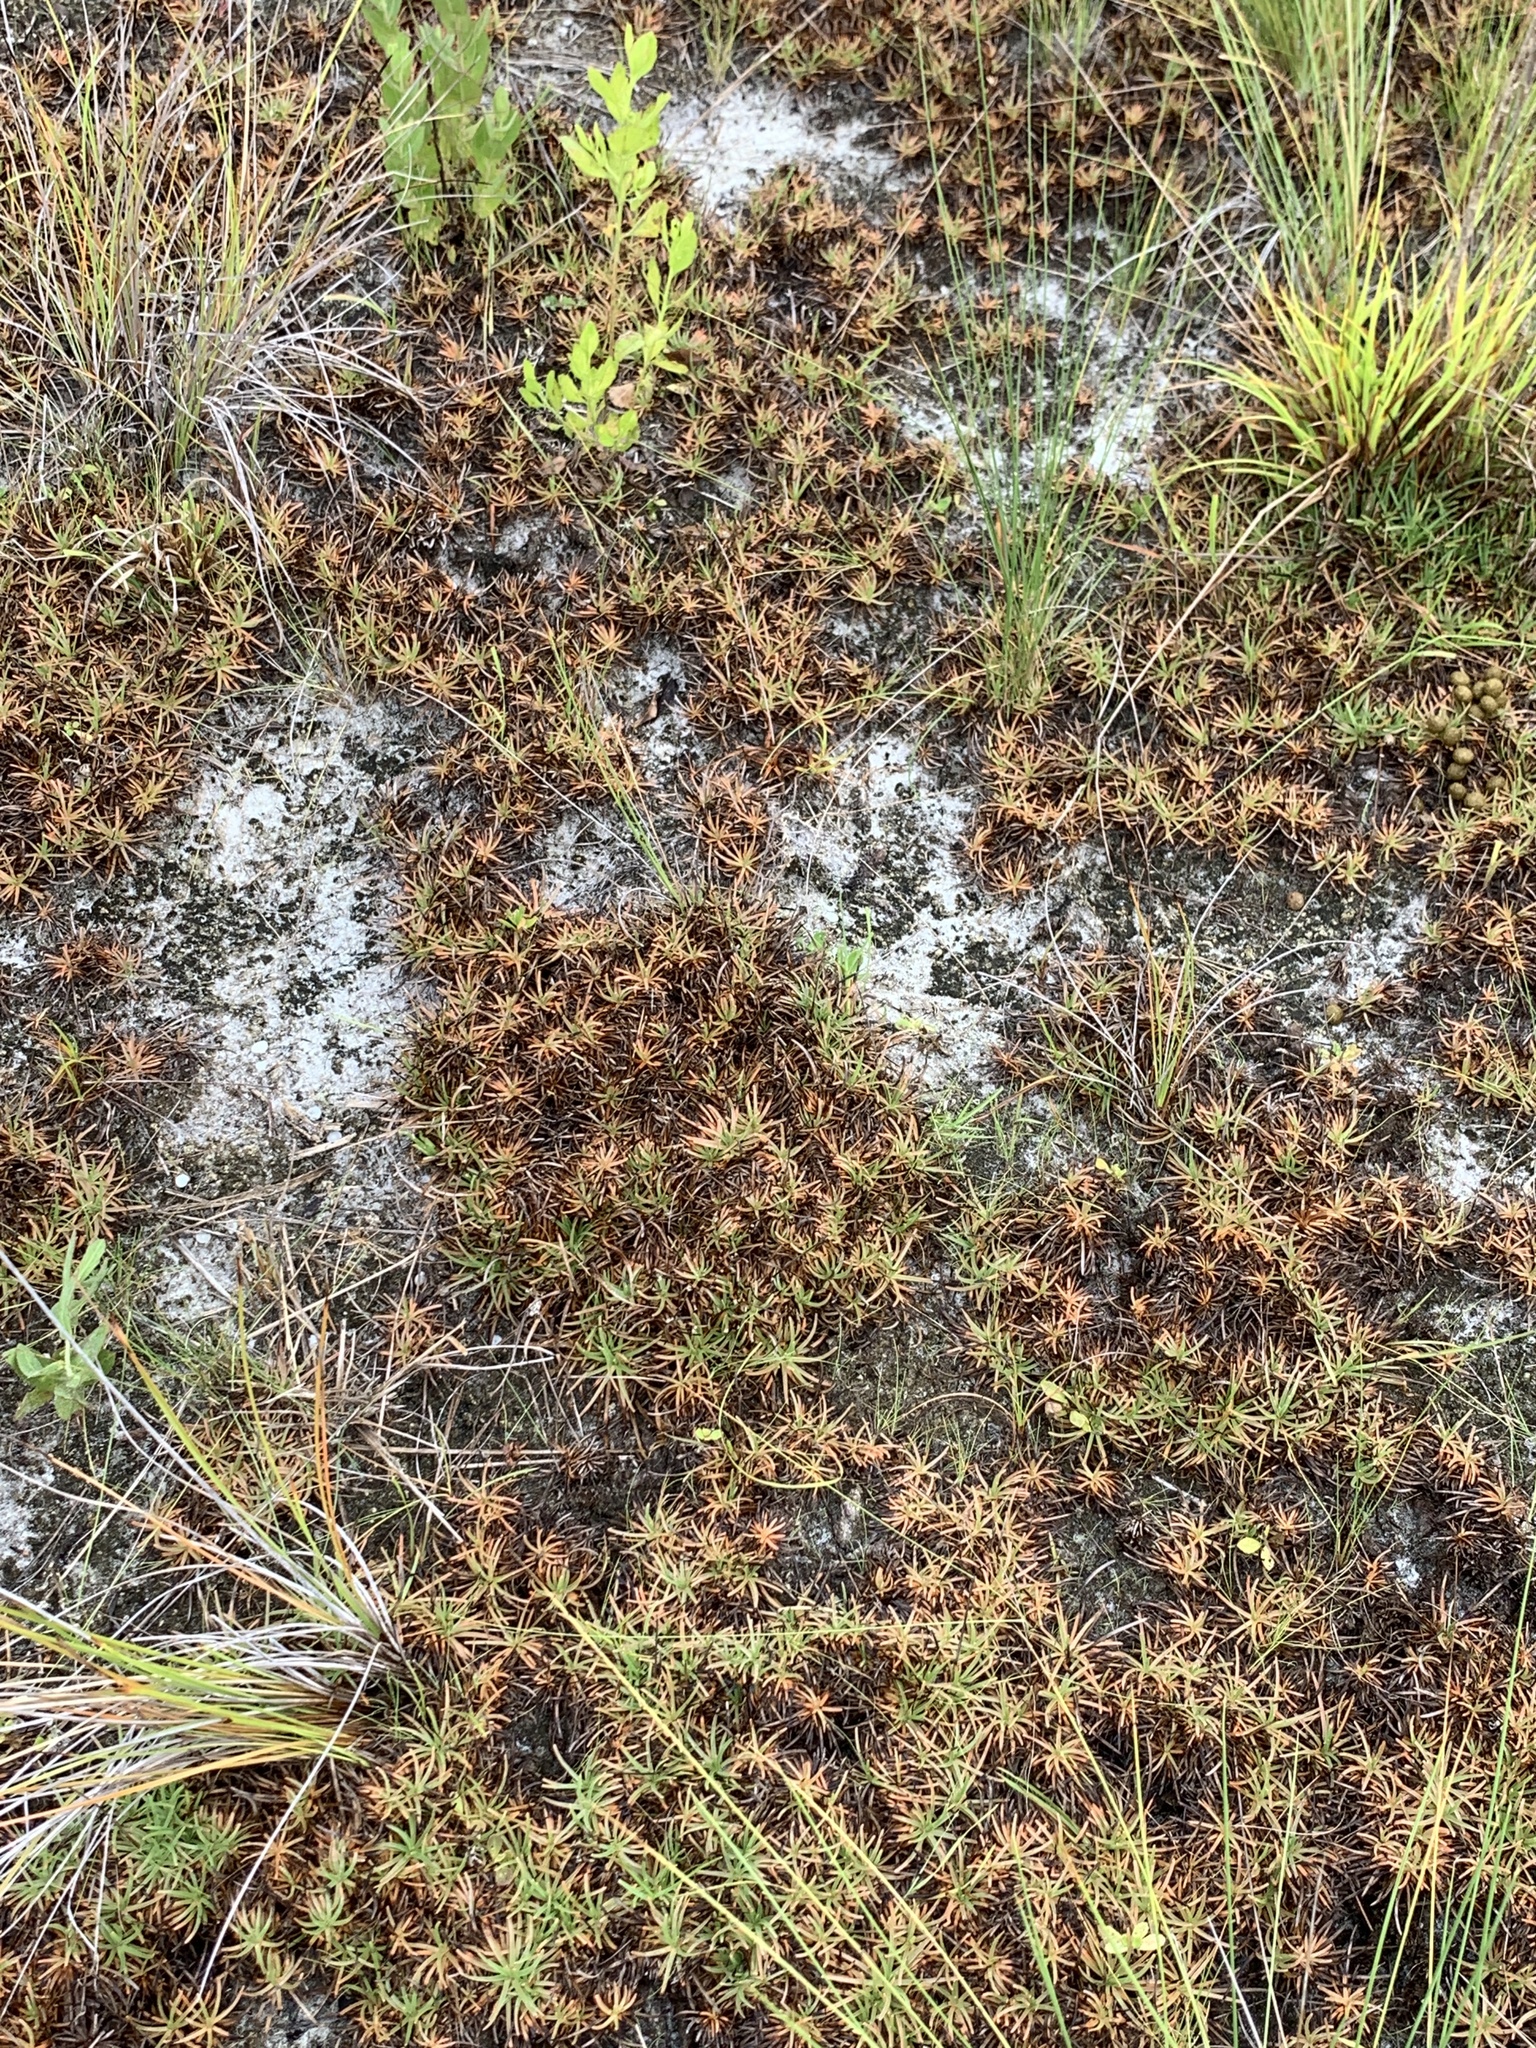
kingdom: Plantae
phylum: Tracheophyta
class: Liliopsida
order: Poales
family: Cyperaceae
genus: Fimbristylis
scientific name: Fimbristylis cymosa
